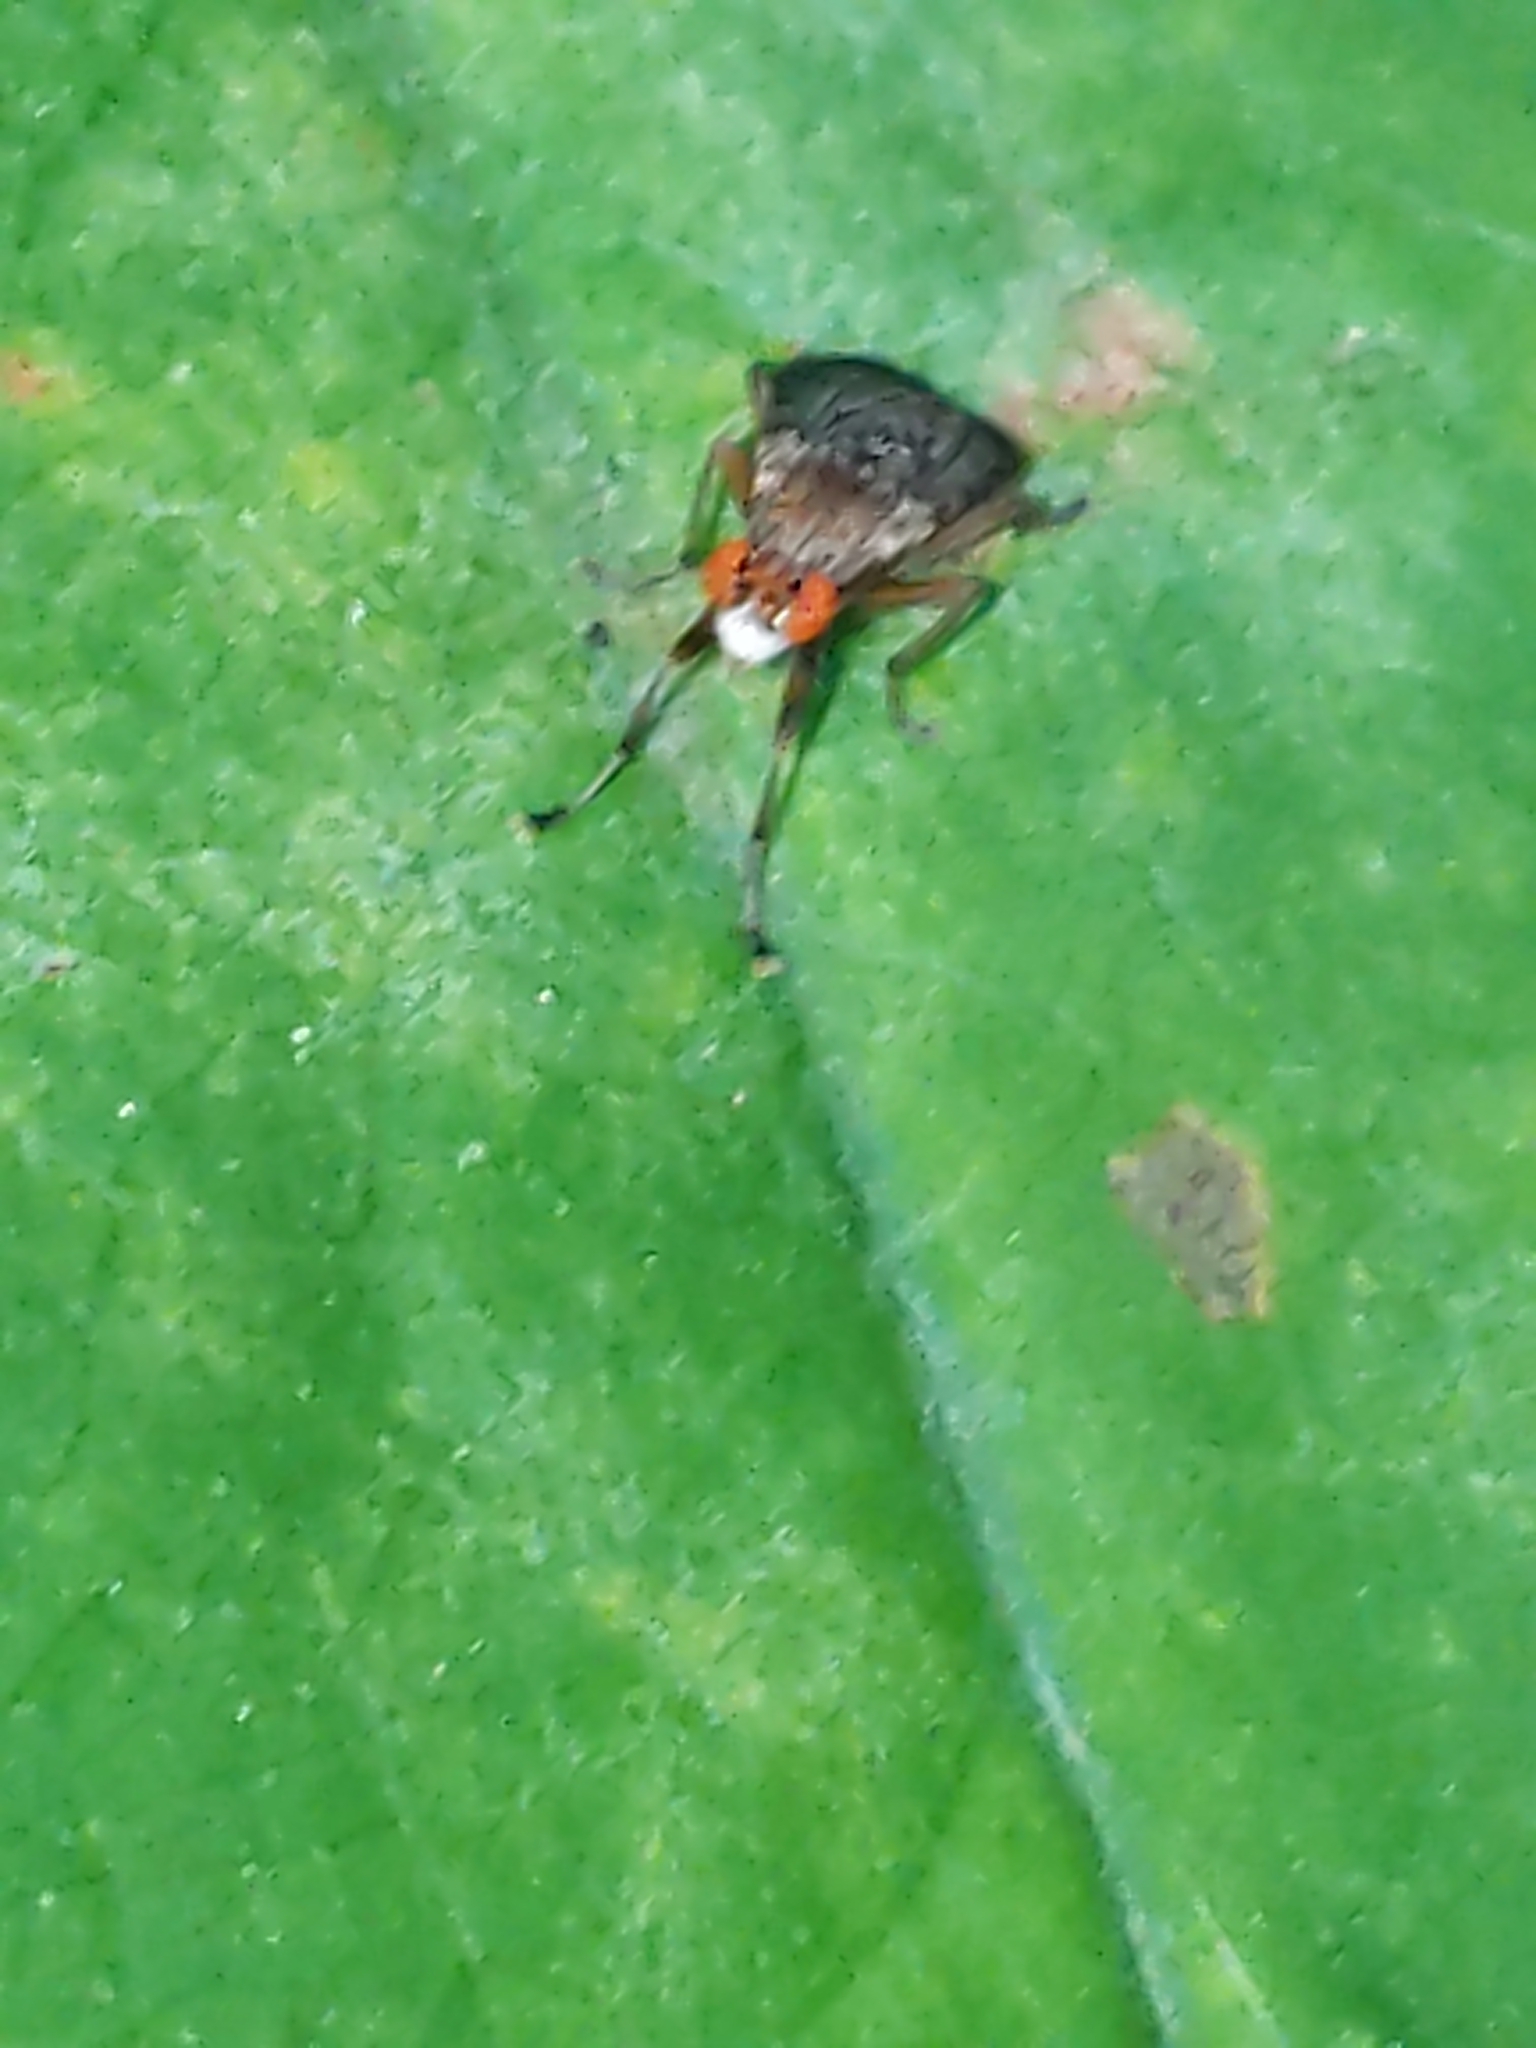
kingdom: Animalia
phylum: Arthropoda
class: Insecta
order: Diptera
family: Sciomyzidae
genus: Euthycera
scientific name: Euthycera flavescens
